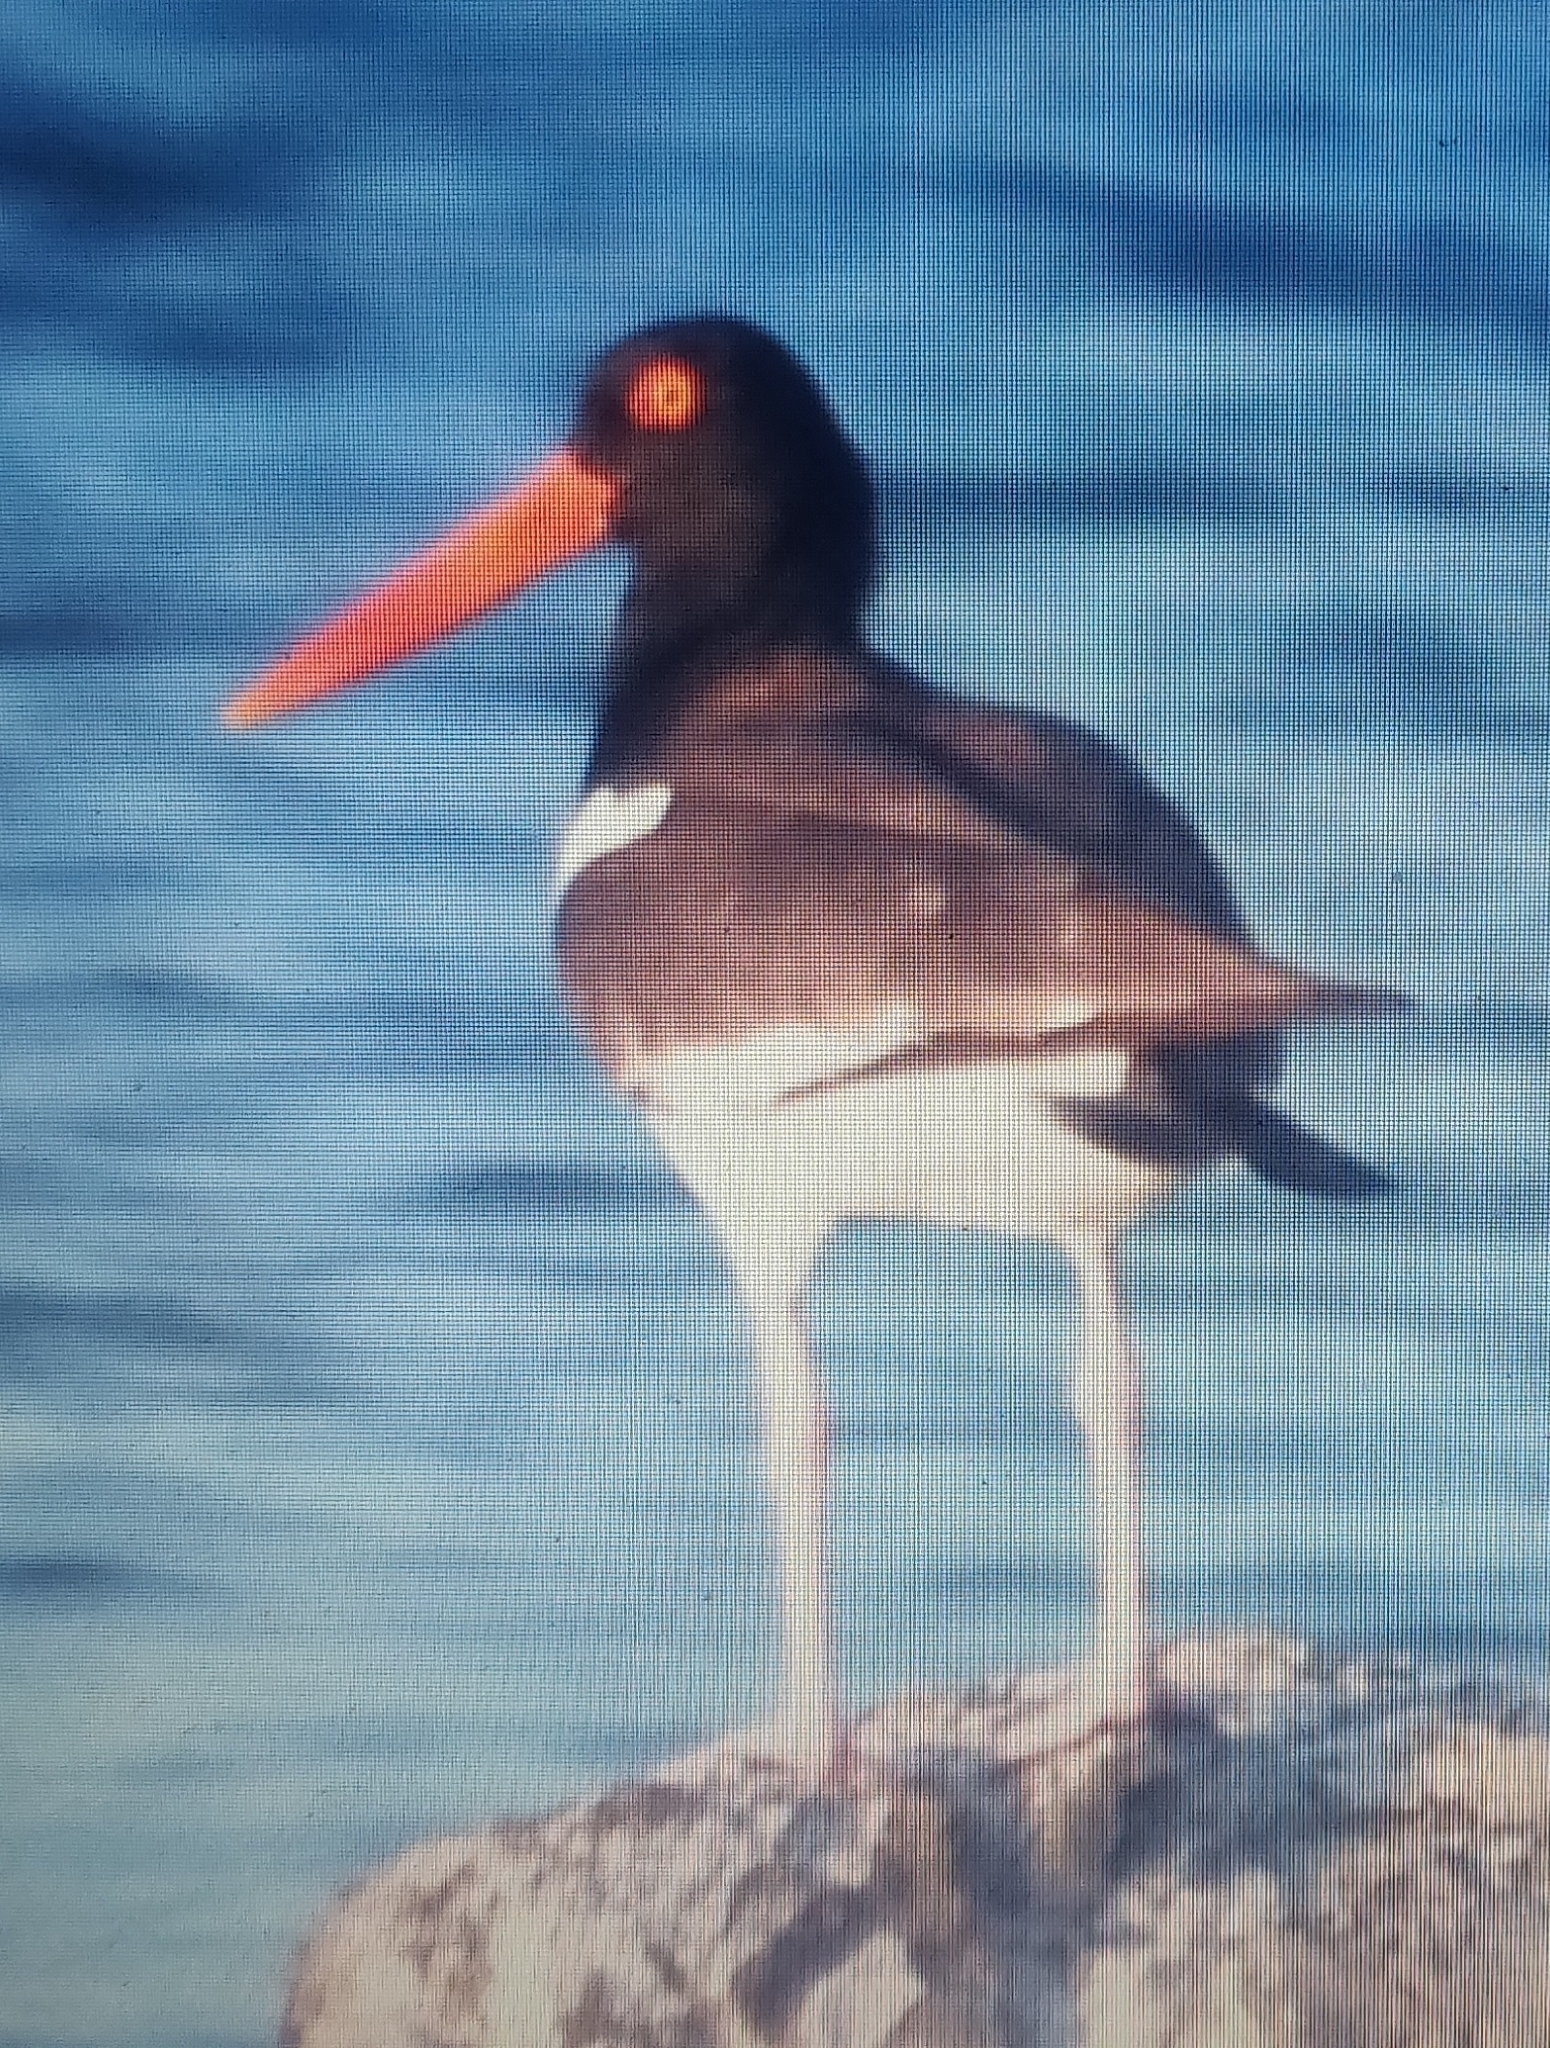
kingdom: Animalia
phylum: Chordata
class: Aves
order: Charadriiformes
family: Haematopodidae
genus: Haematopus
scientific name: Haematopus palliatus
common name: American oystercatcher
